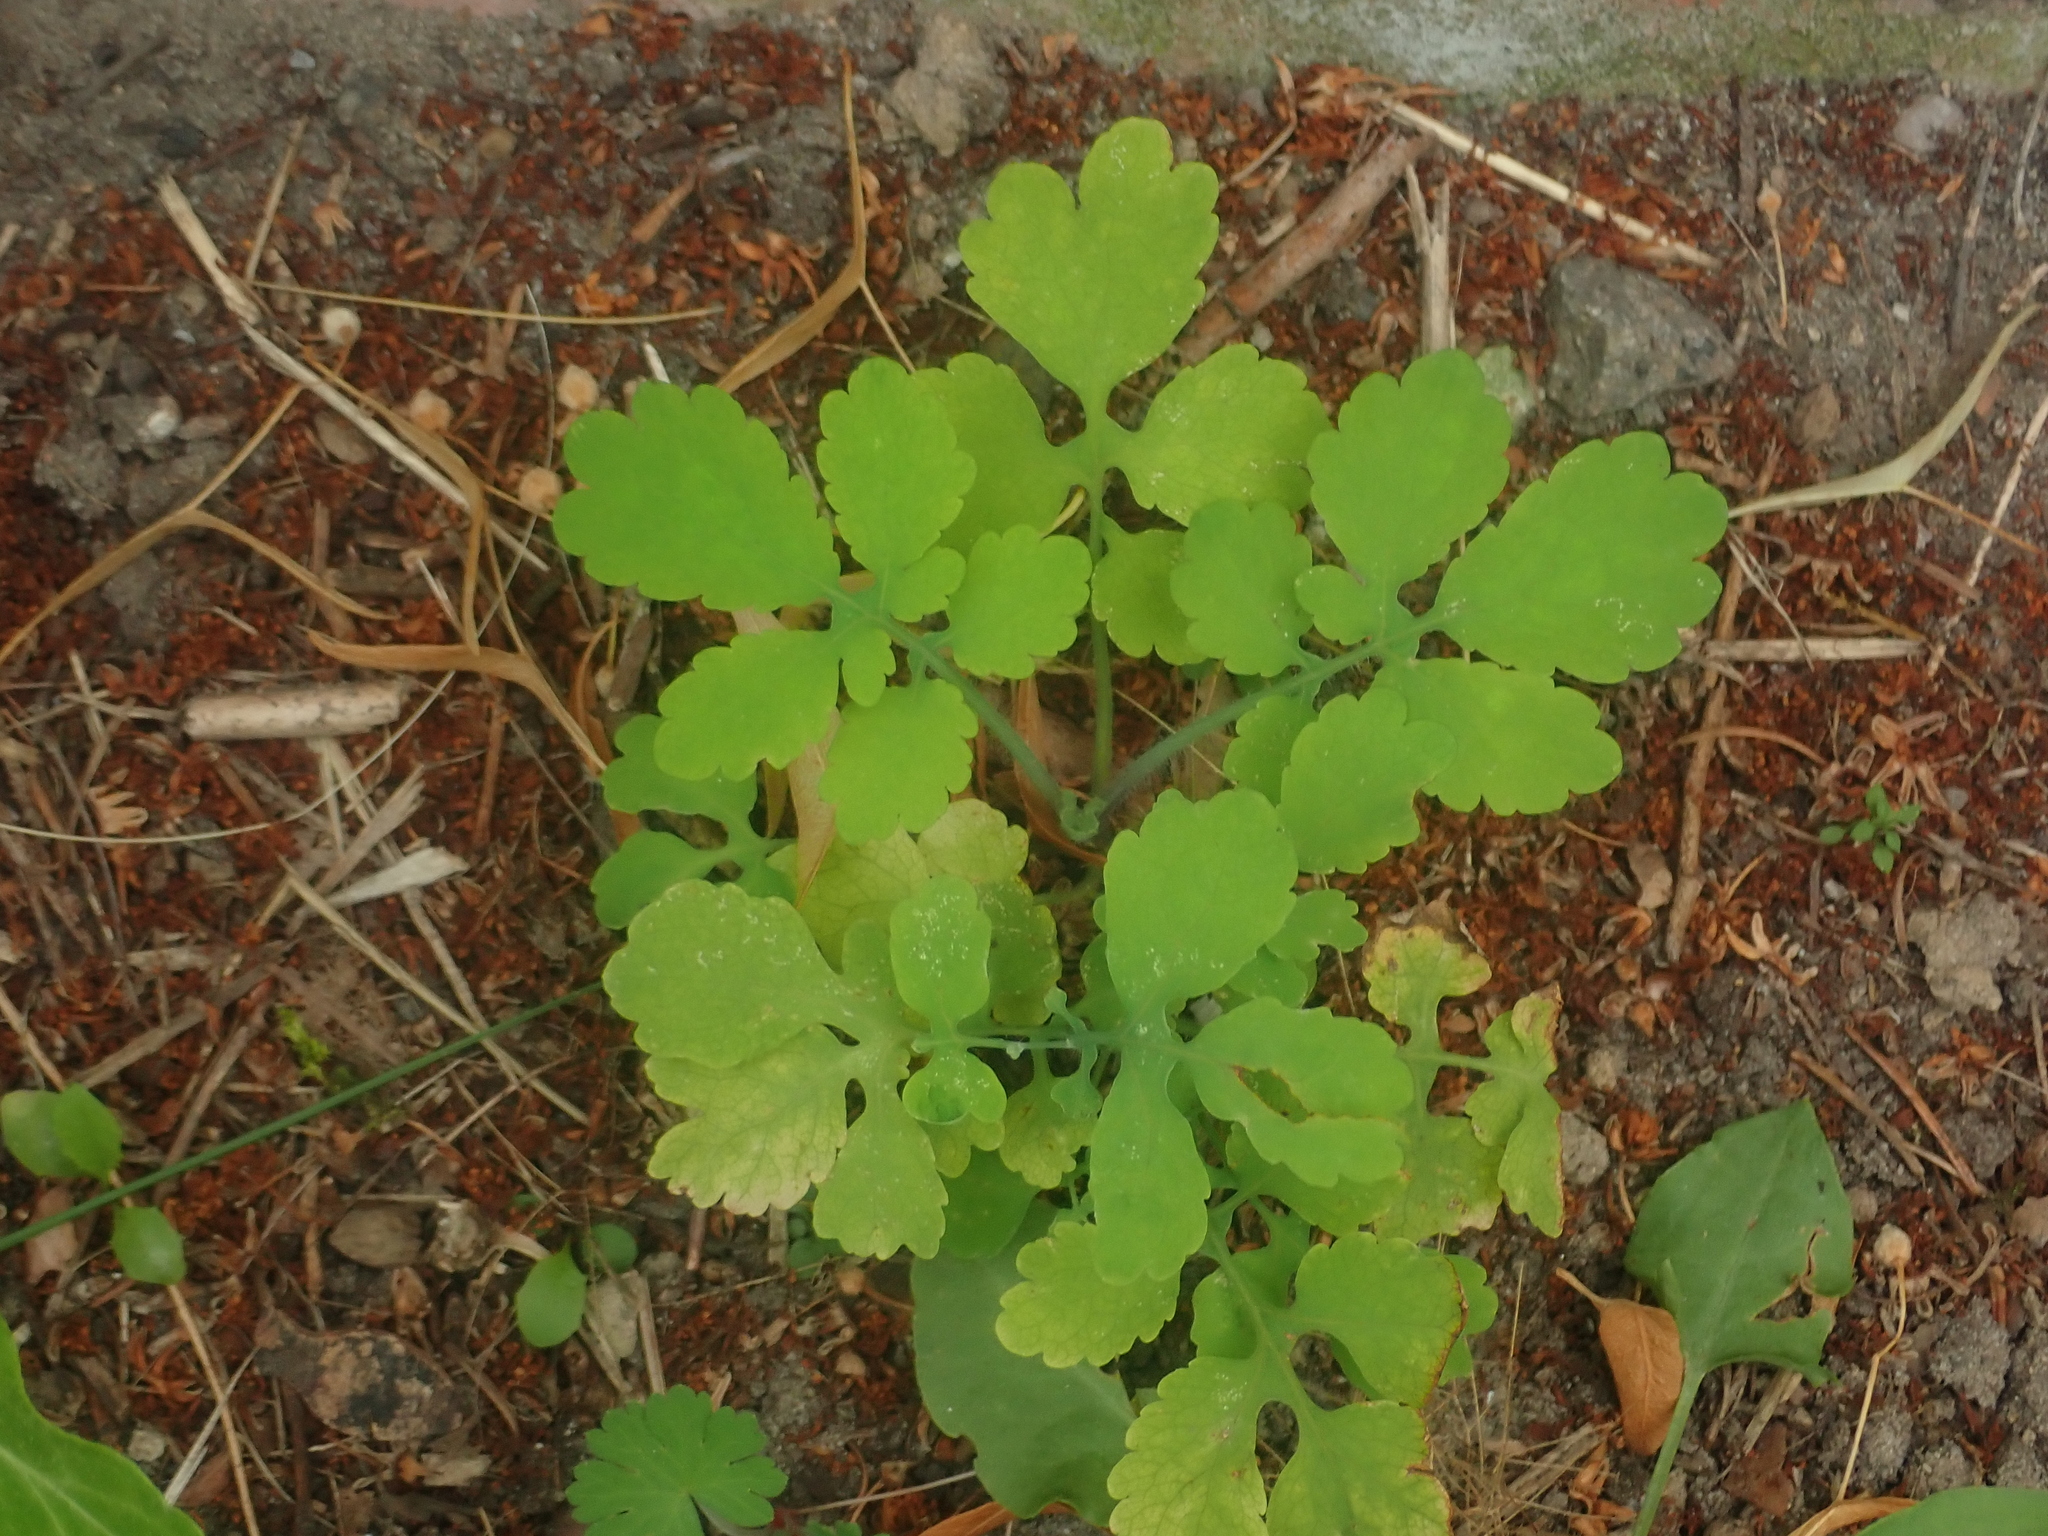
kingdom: Plantae
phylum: Tracheophyta
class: Magnoliopsida
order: Ranunculales
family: Papaveraceae
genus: Chelidonium
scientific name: Chelidonium majus
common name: Greater celandine
